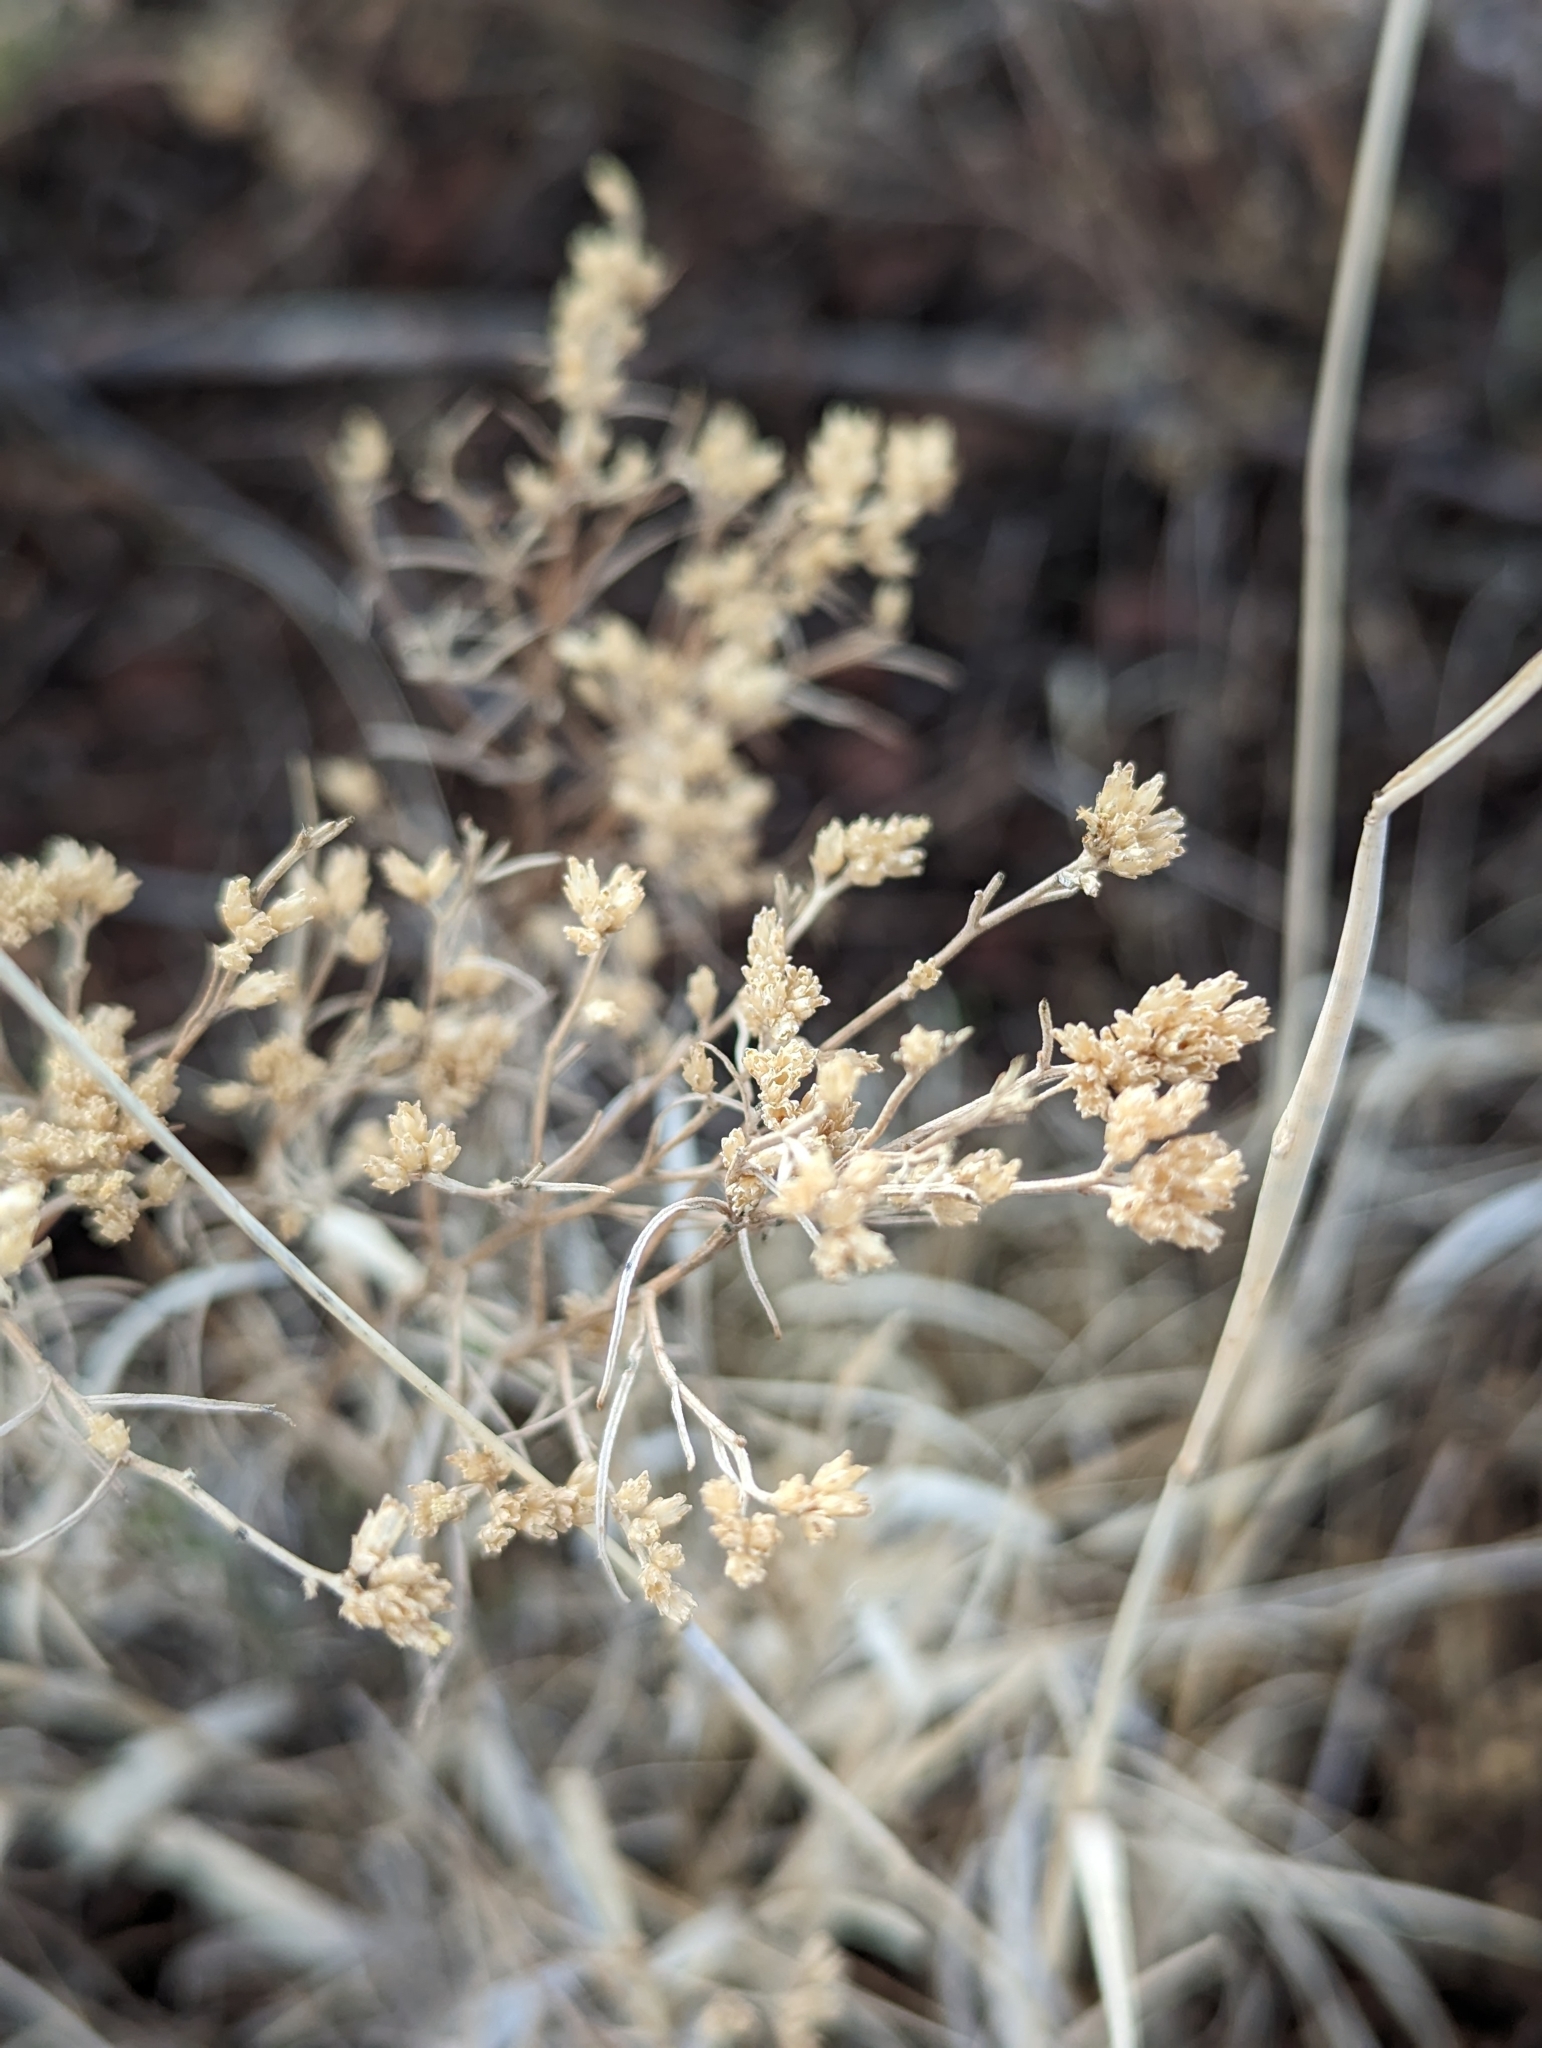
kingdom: Plantae
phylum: Tracheophyta
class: Magnoliopsida
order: Asterales
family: Asteraceae
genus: Gutierrezia
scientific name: Gutierrezia sarothrae
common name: Broom snakeweed
